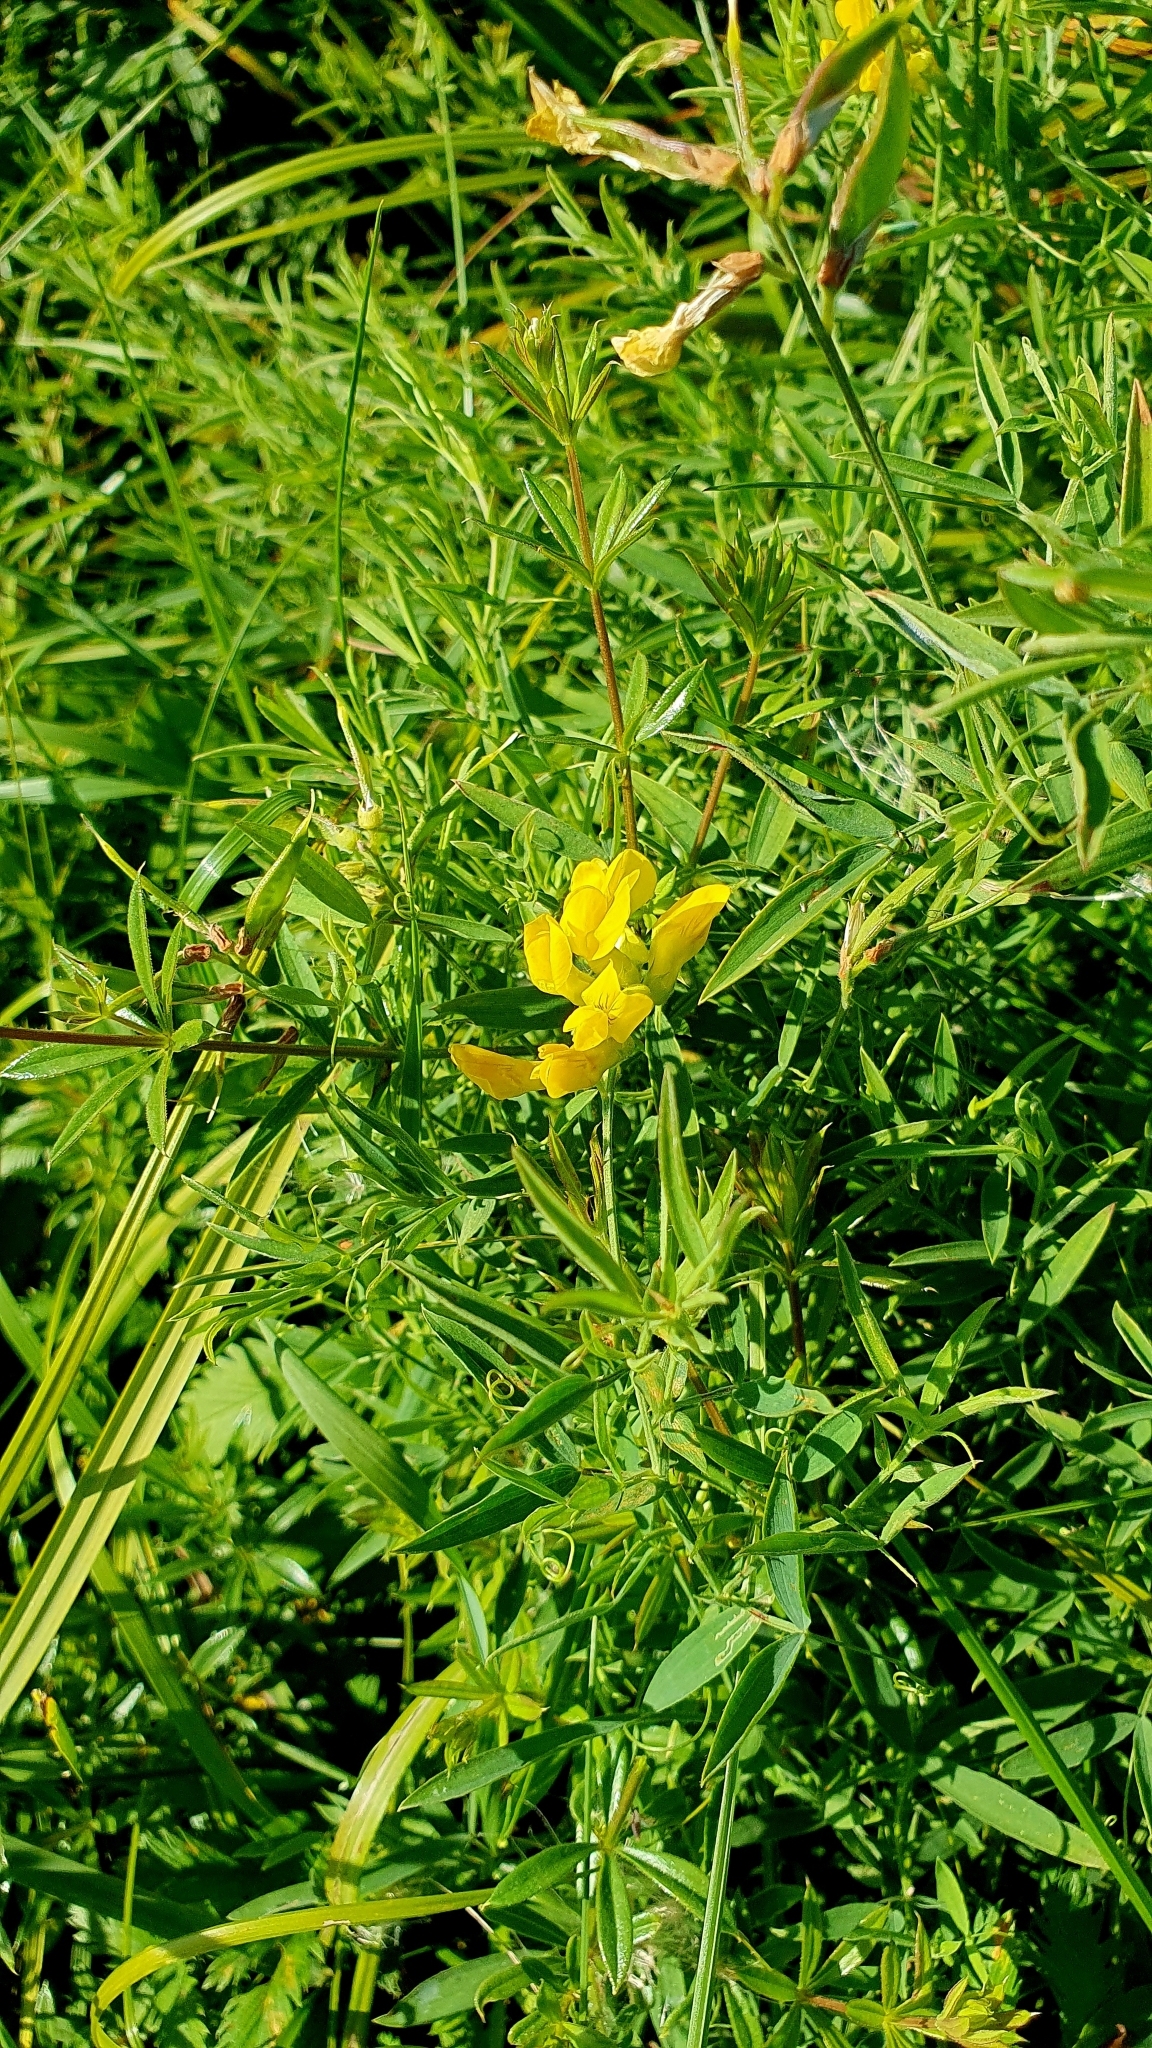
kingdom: Plantae
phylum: Tracheophyta
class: Magnoliopsida
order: Fabales
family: Fabaceae
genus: Lathyrus
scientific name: Lathyrus pratensis
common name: Meadow vetchling
